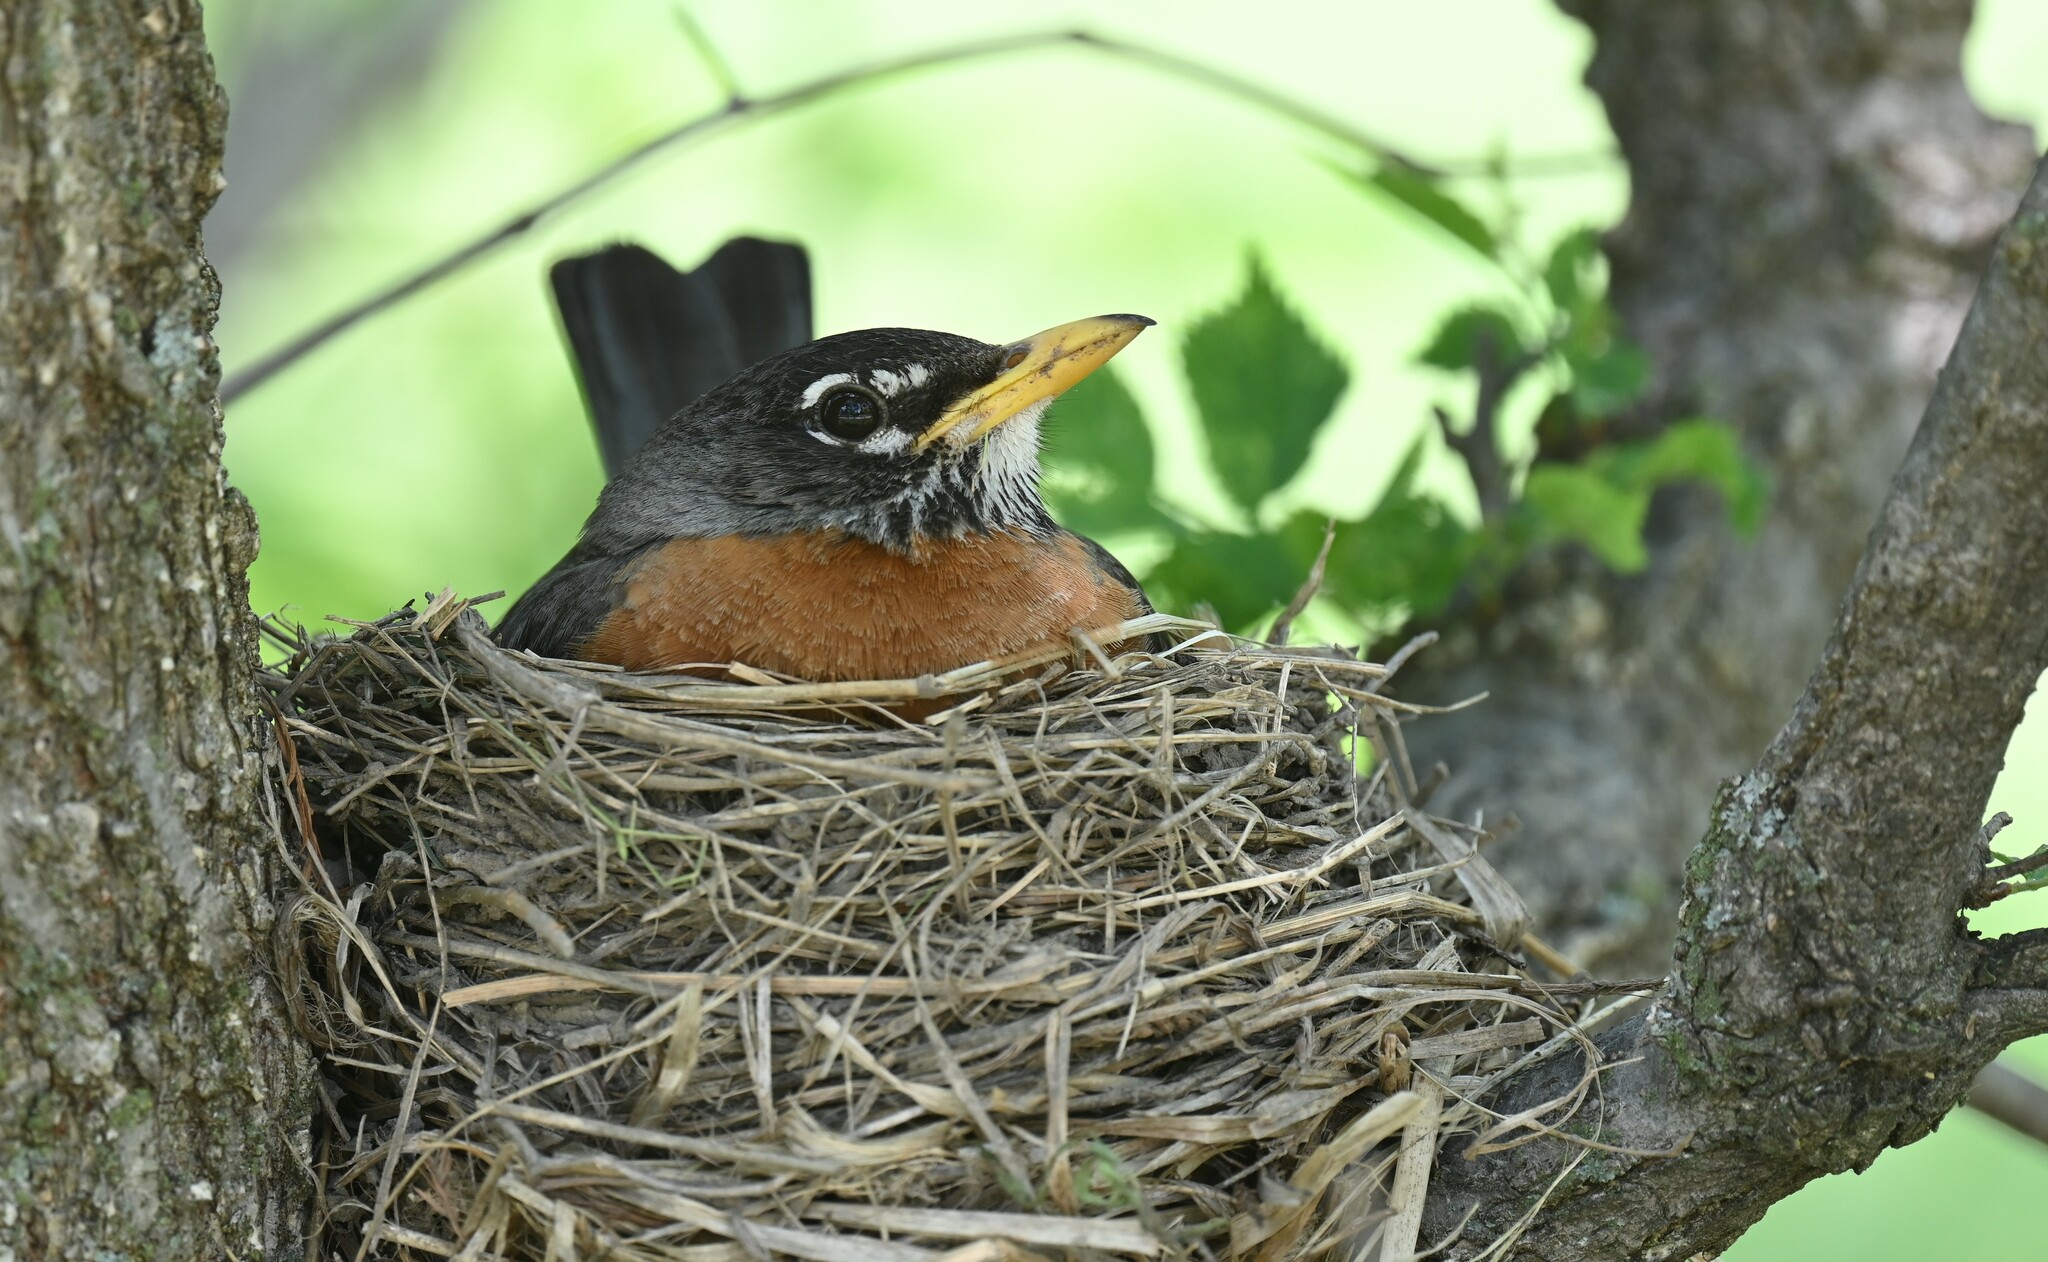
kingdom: Animalia
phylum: Chordata
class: Aves
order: Passeriformes
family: Turdidae
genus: Turdus
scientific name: Turdus migratorius
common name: American robin
